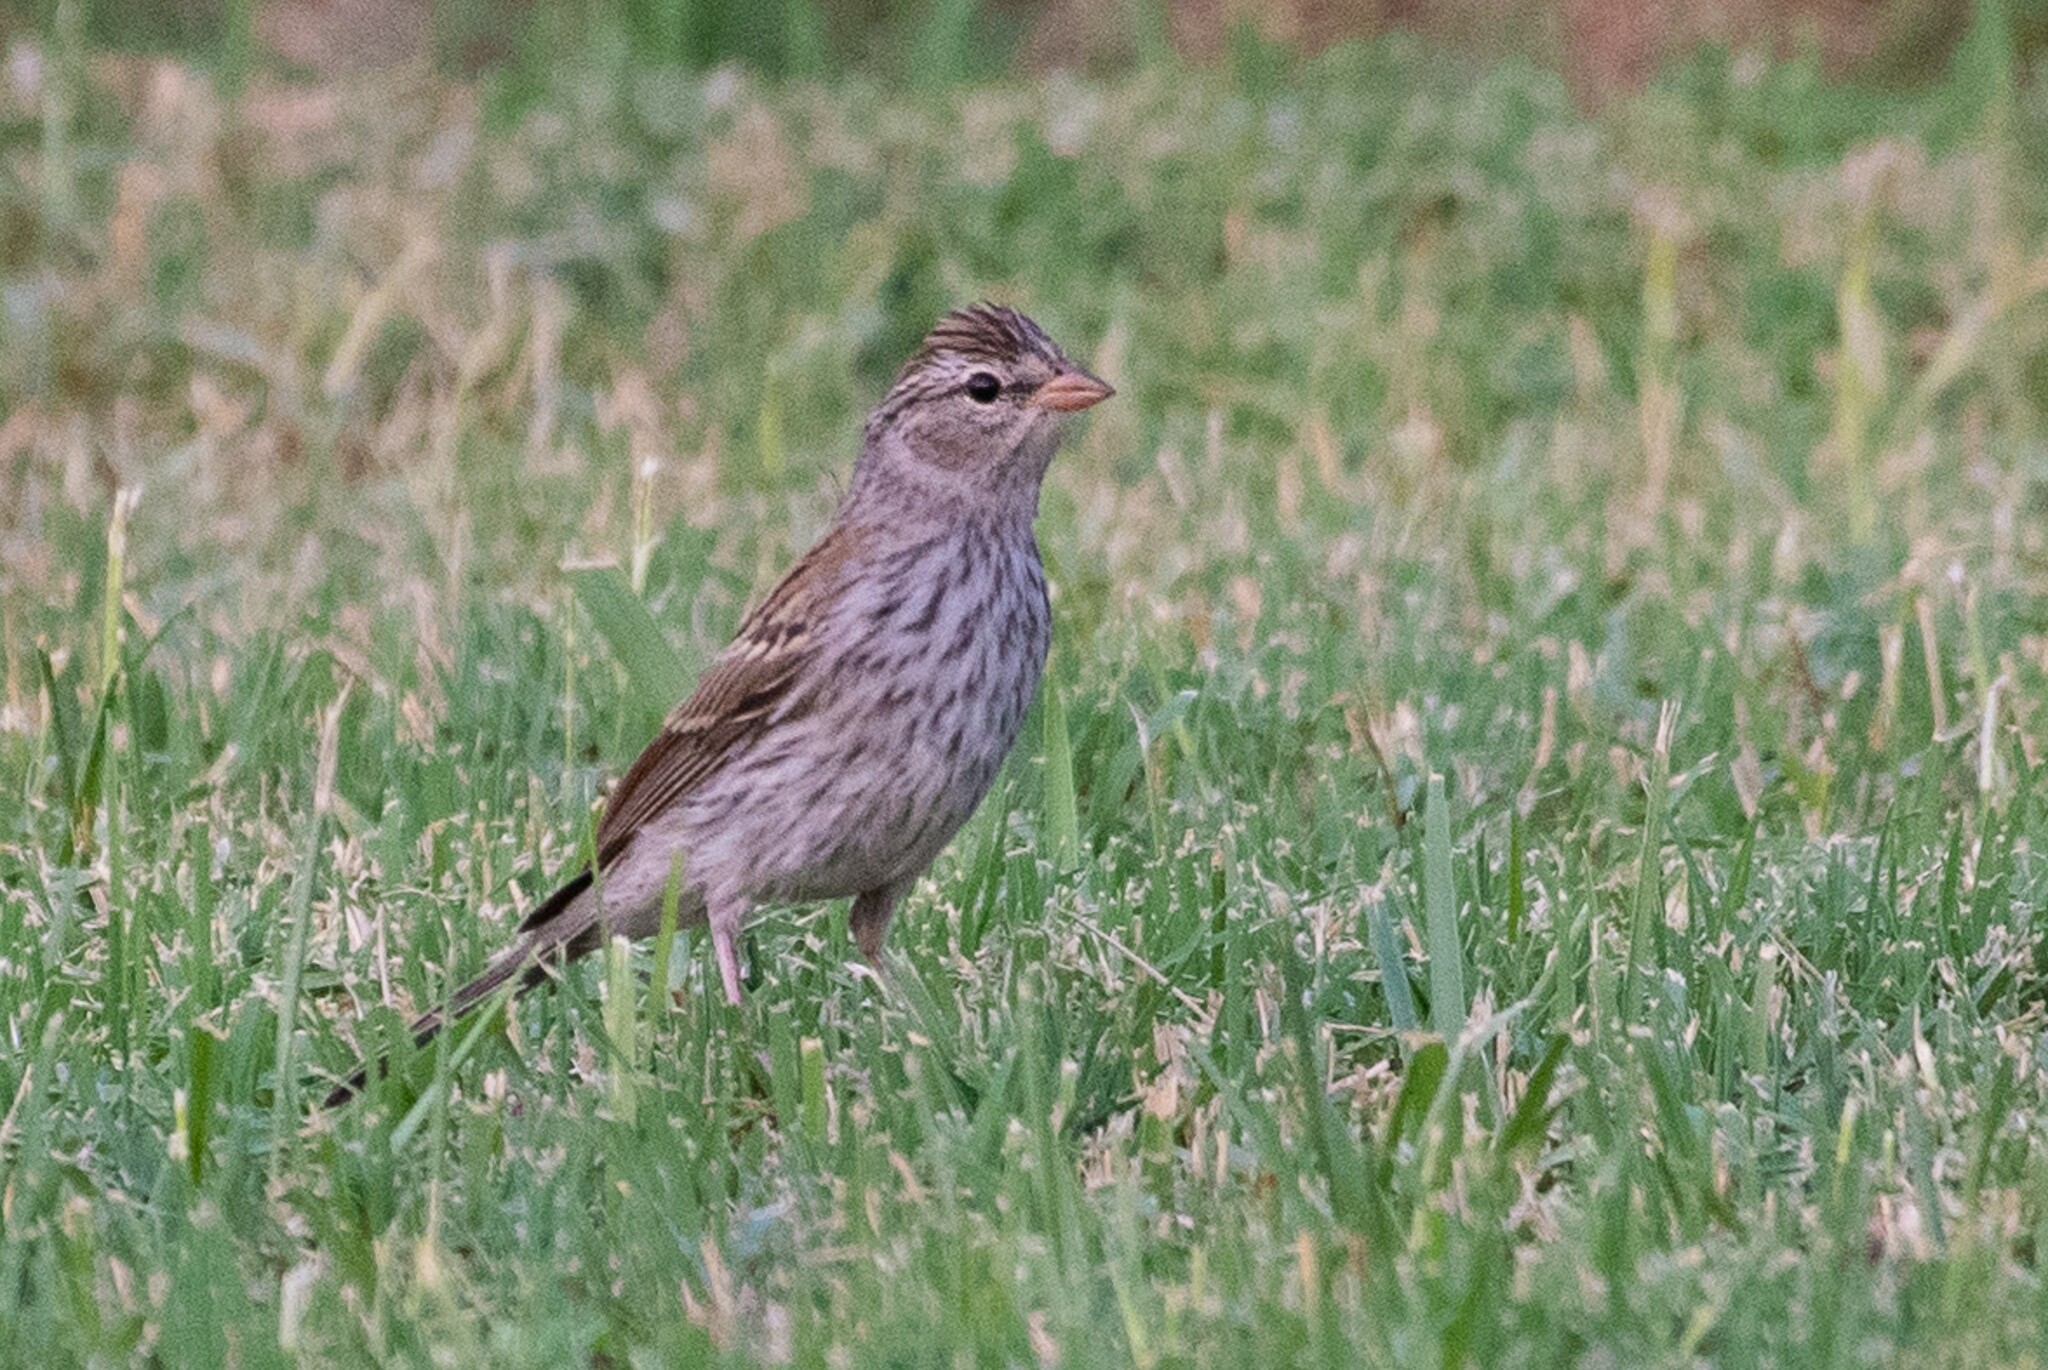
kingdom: Animalia
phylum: Chordata
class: Aves
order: Passeriformes
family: Passerellidae
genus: Spizella
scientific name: Spizella passerina
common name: Chipping sparrow
